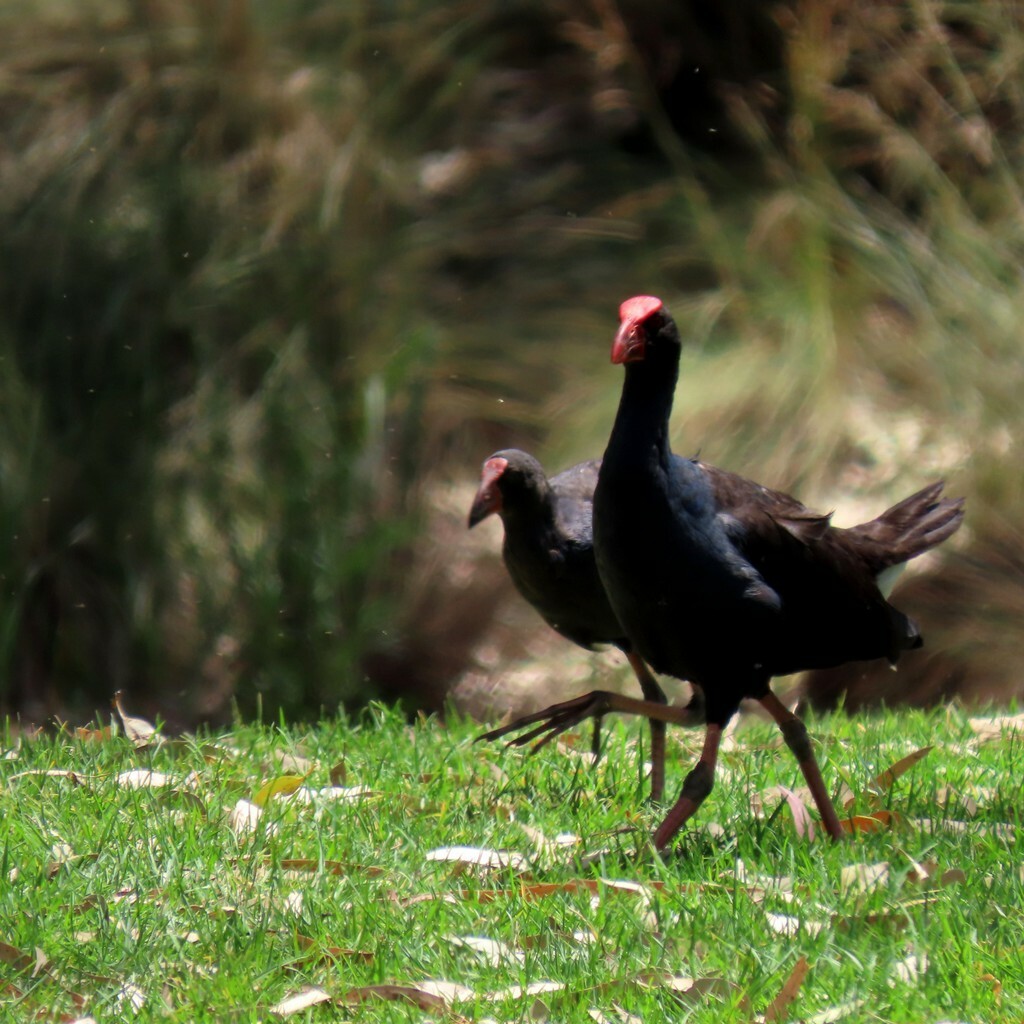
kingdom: Animalia
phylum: Chordata
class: Aves
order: Gruiformes
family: Rallidae
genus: Porphyrio
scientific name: Porphyrio melanotus
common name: Australasian swamphen
